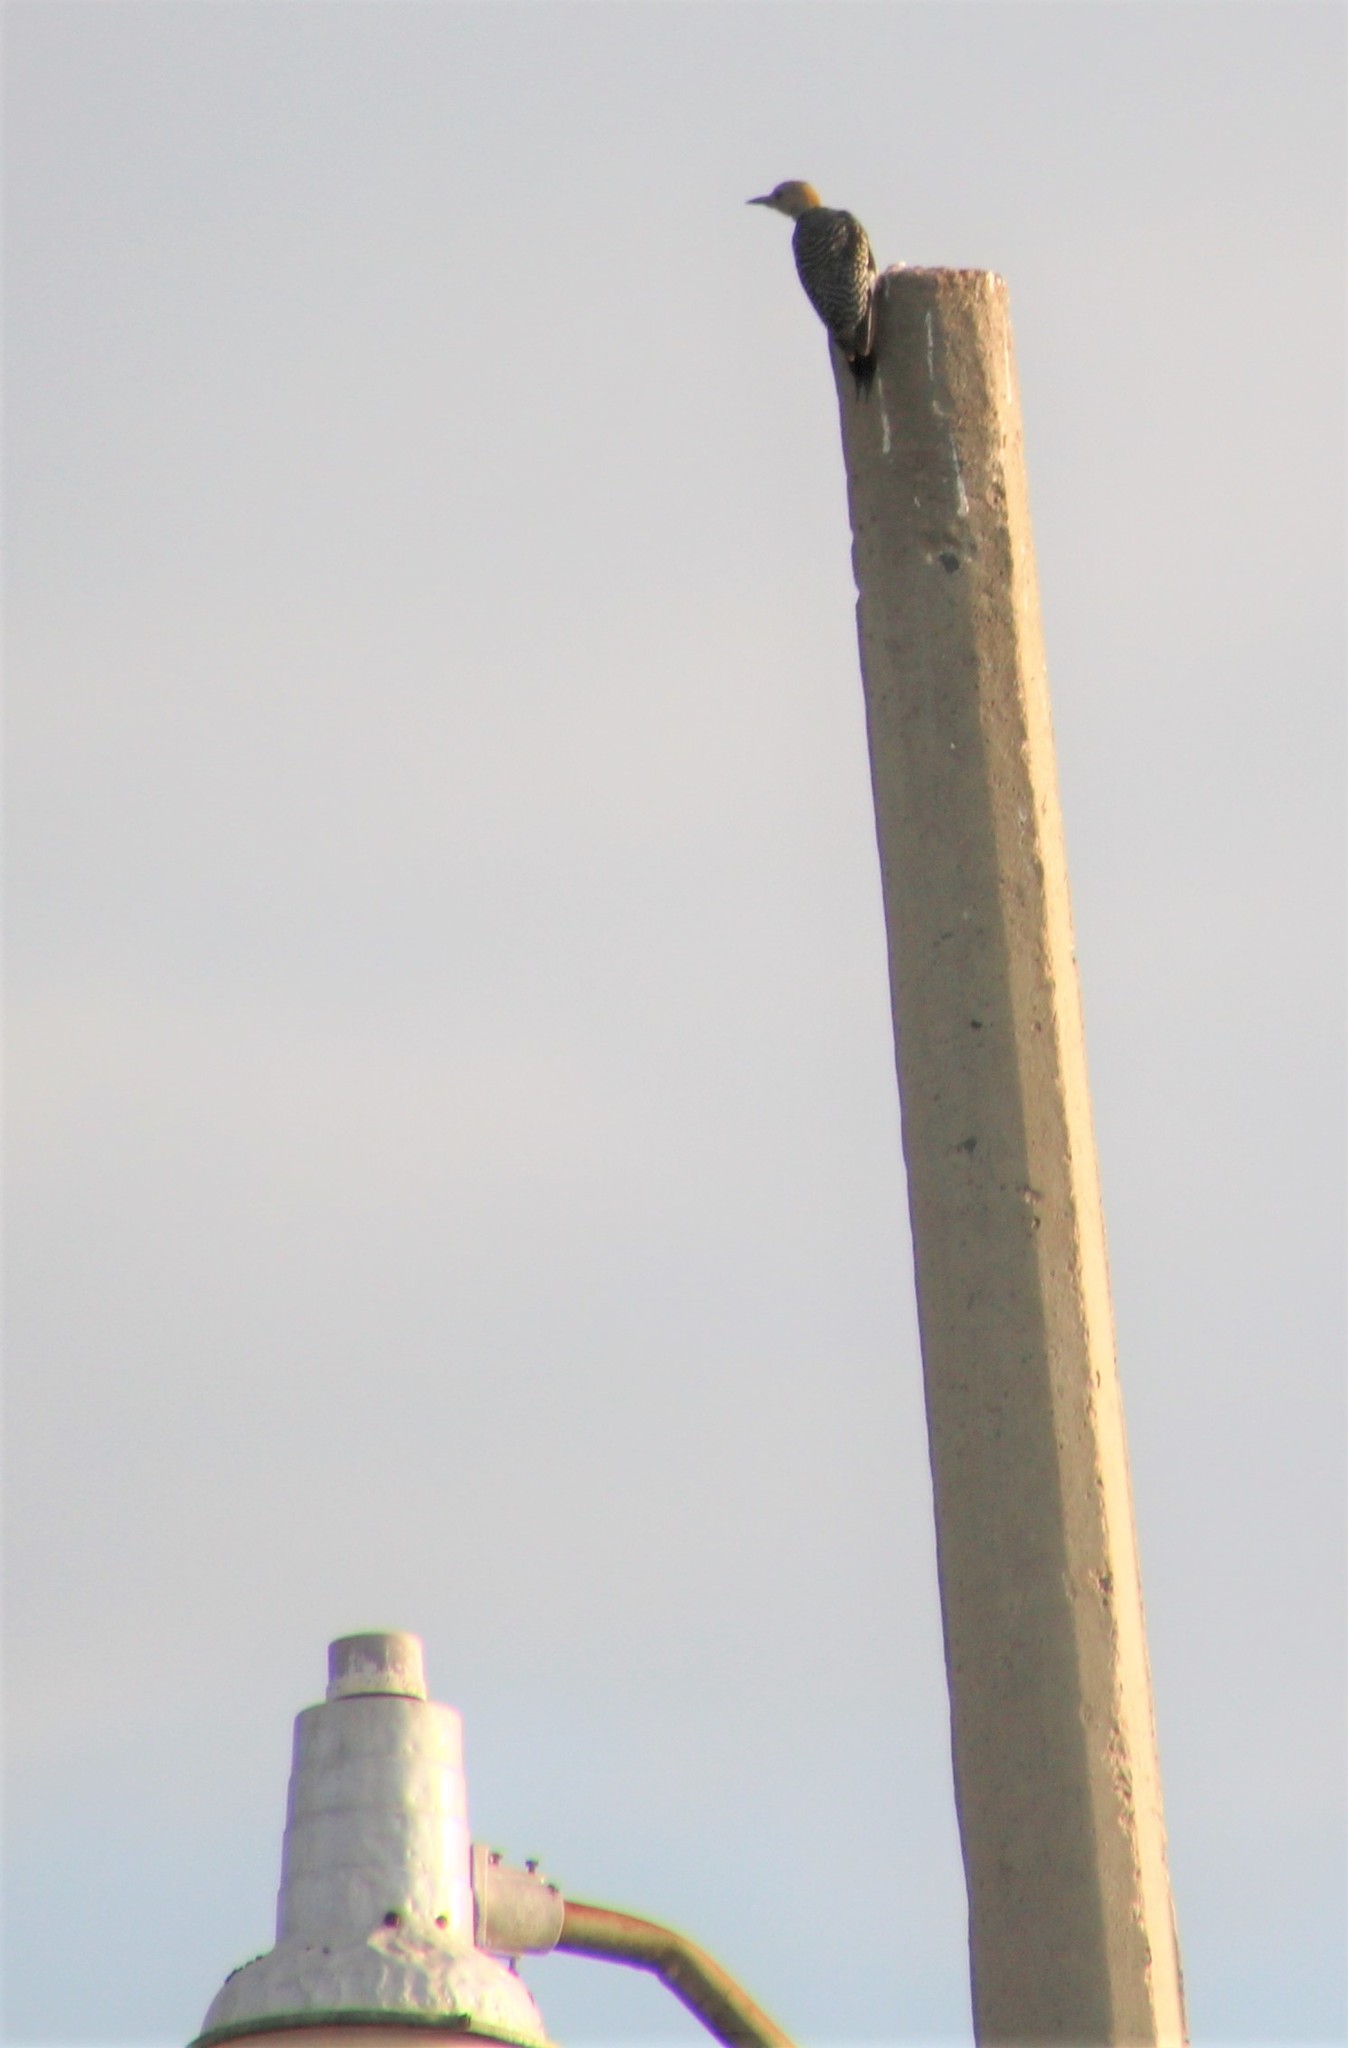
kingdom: Animalia
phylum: Chordata
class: Aves
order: Piciformes
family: Picidae
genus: Melanerpes
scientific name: Melanerpes aurifrons
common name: Golden-fronted woodpecker
